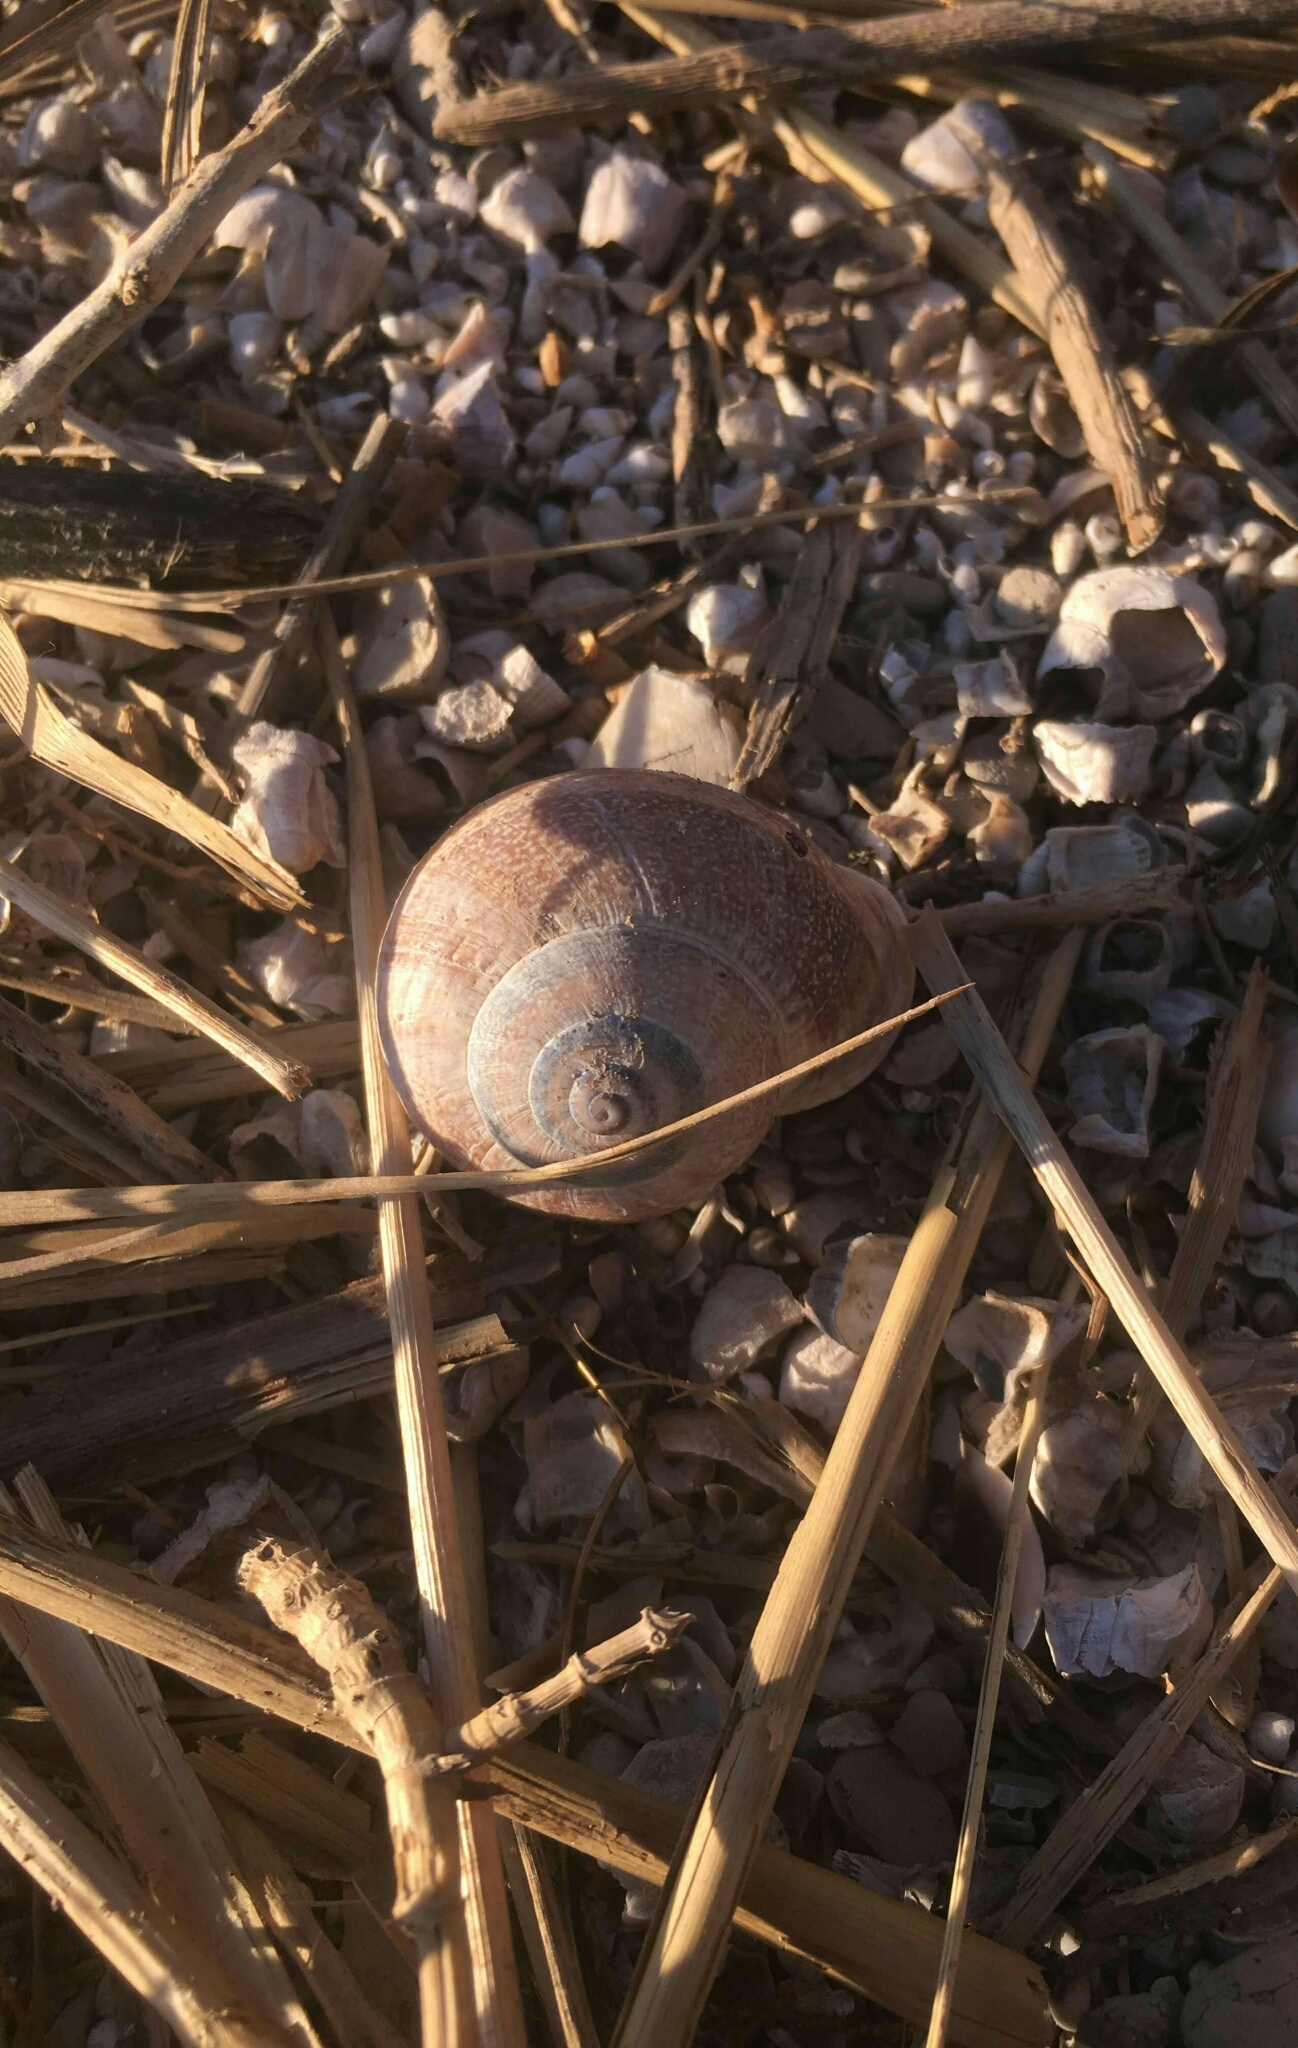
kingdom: Animalia
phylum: Mollusca
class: Gastropoda
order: Stylommatophora
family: Helicidae
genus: Otala
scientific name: Otala punctata
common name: Milk snail
